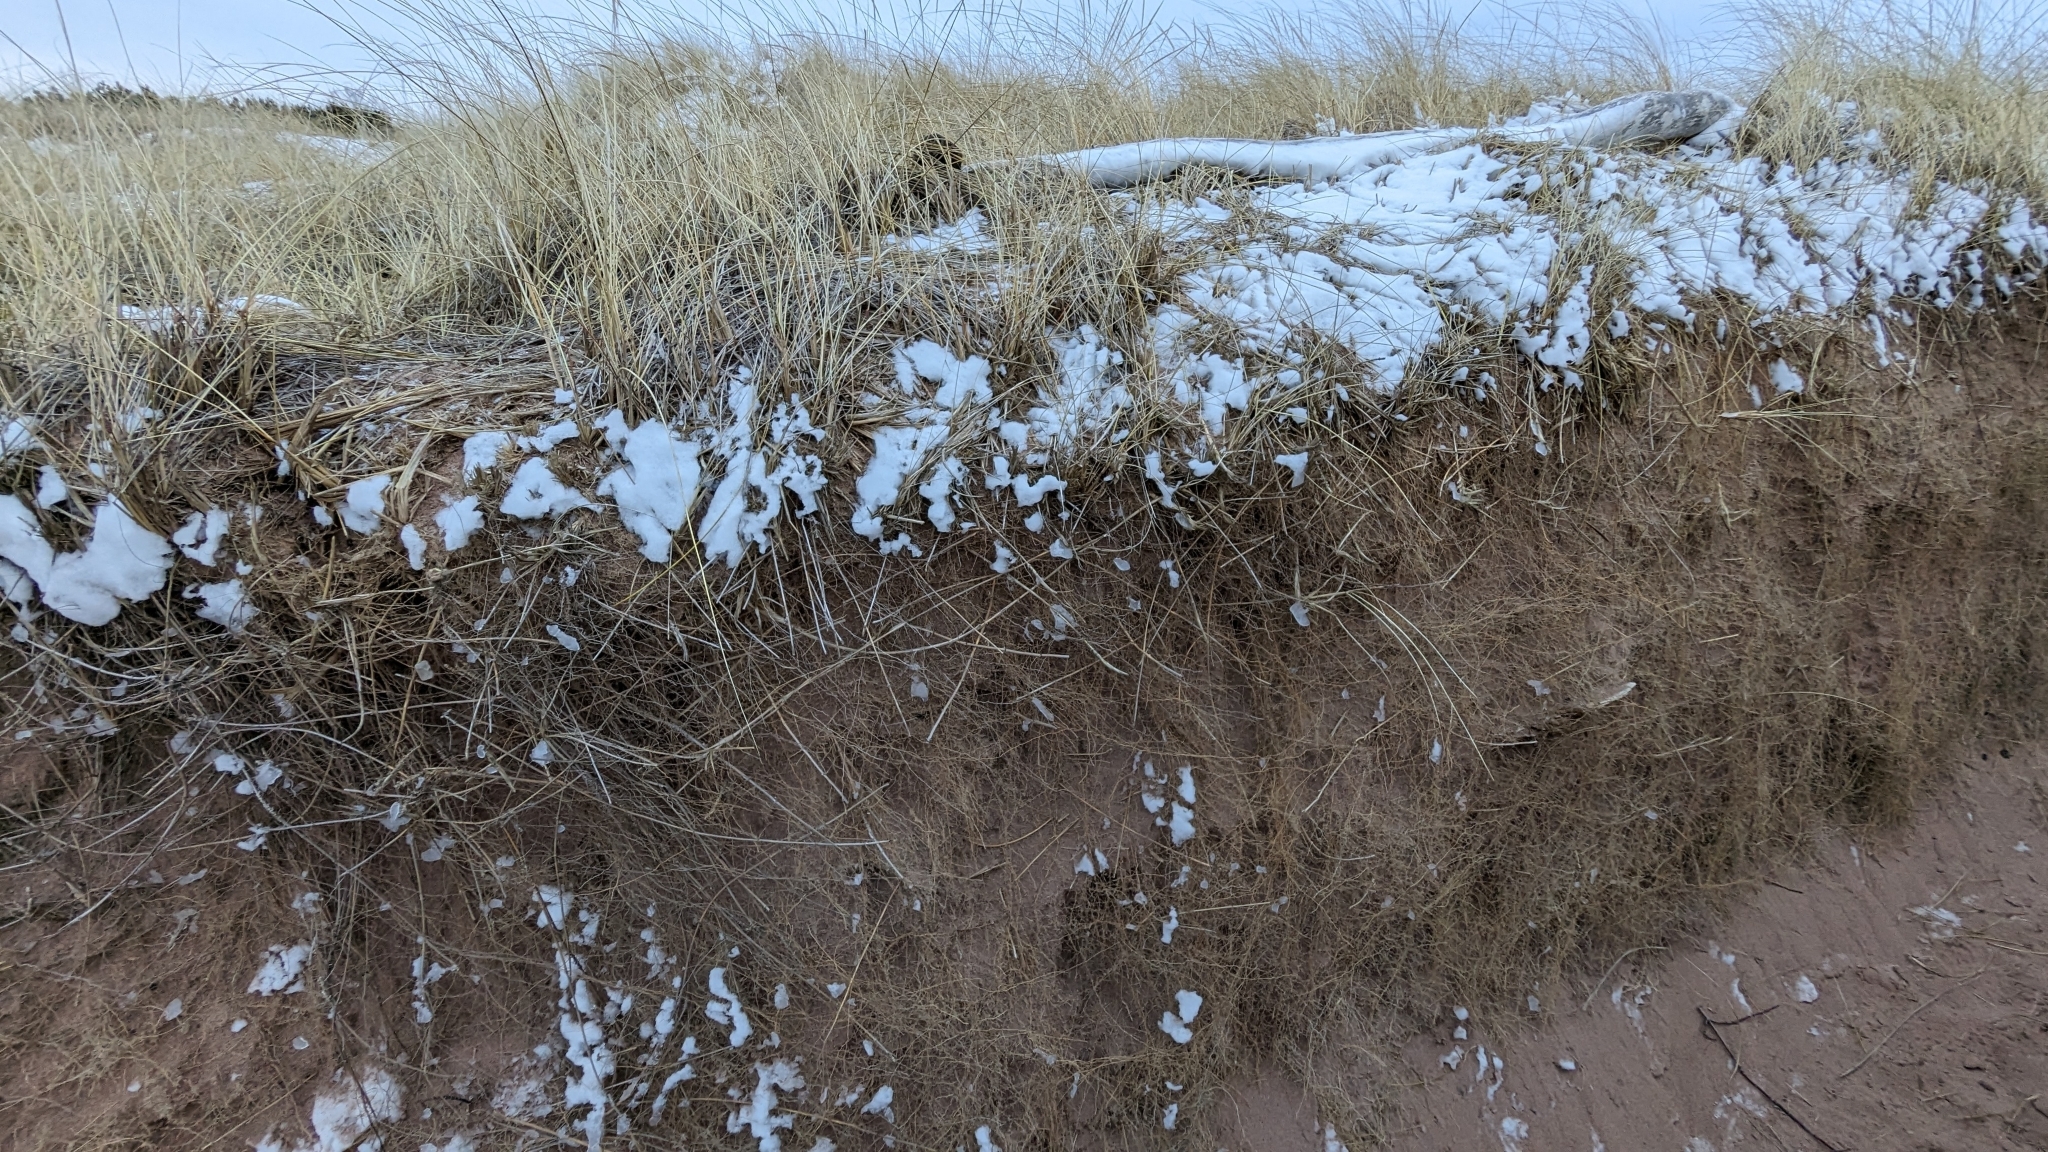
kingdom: Plantae
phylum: Tracheophyta
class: Liliopsida
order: Poales
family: Poaceae
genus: Calamagrostis
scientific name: Calamagrostis breviligulata
